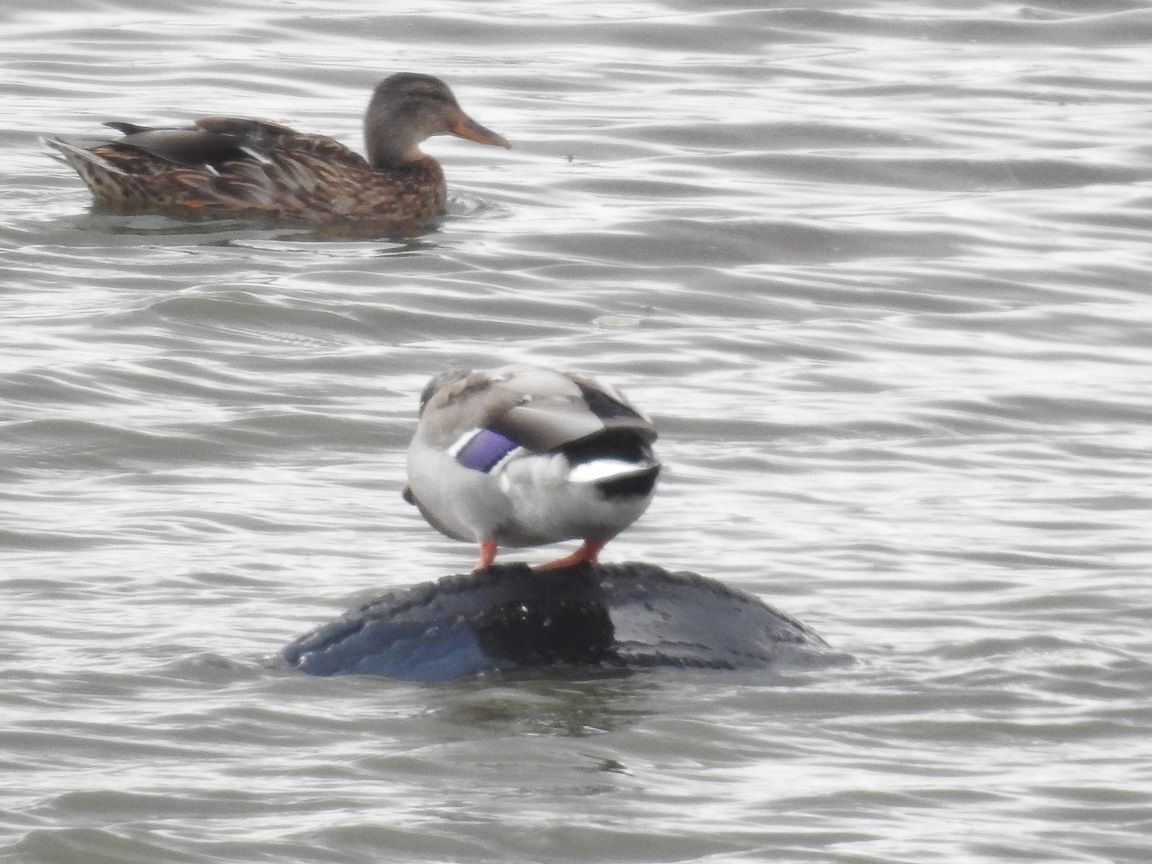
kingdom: Animalia
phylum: Chordata
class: Aves
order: Anseriformes
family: Anatidae
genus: Anas
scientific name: Anas platyrhynchos
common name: Mallard
